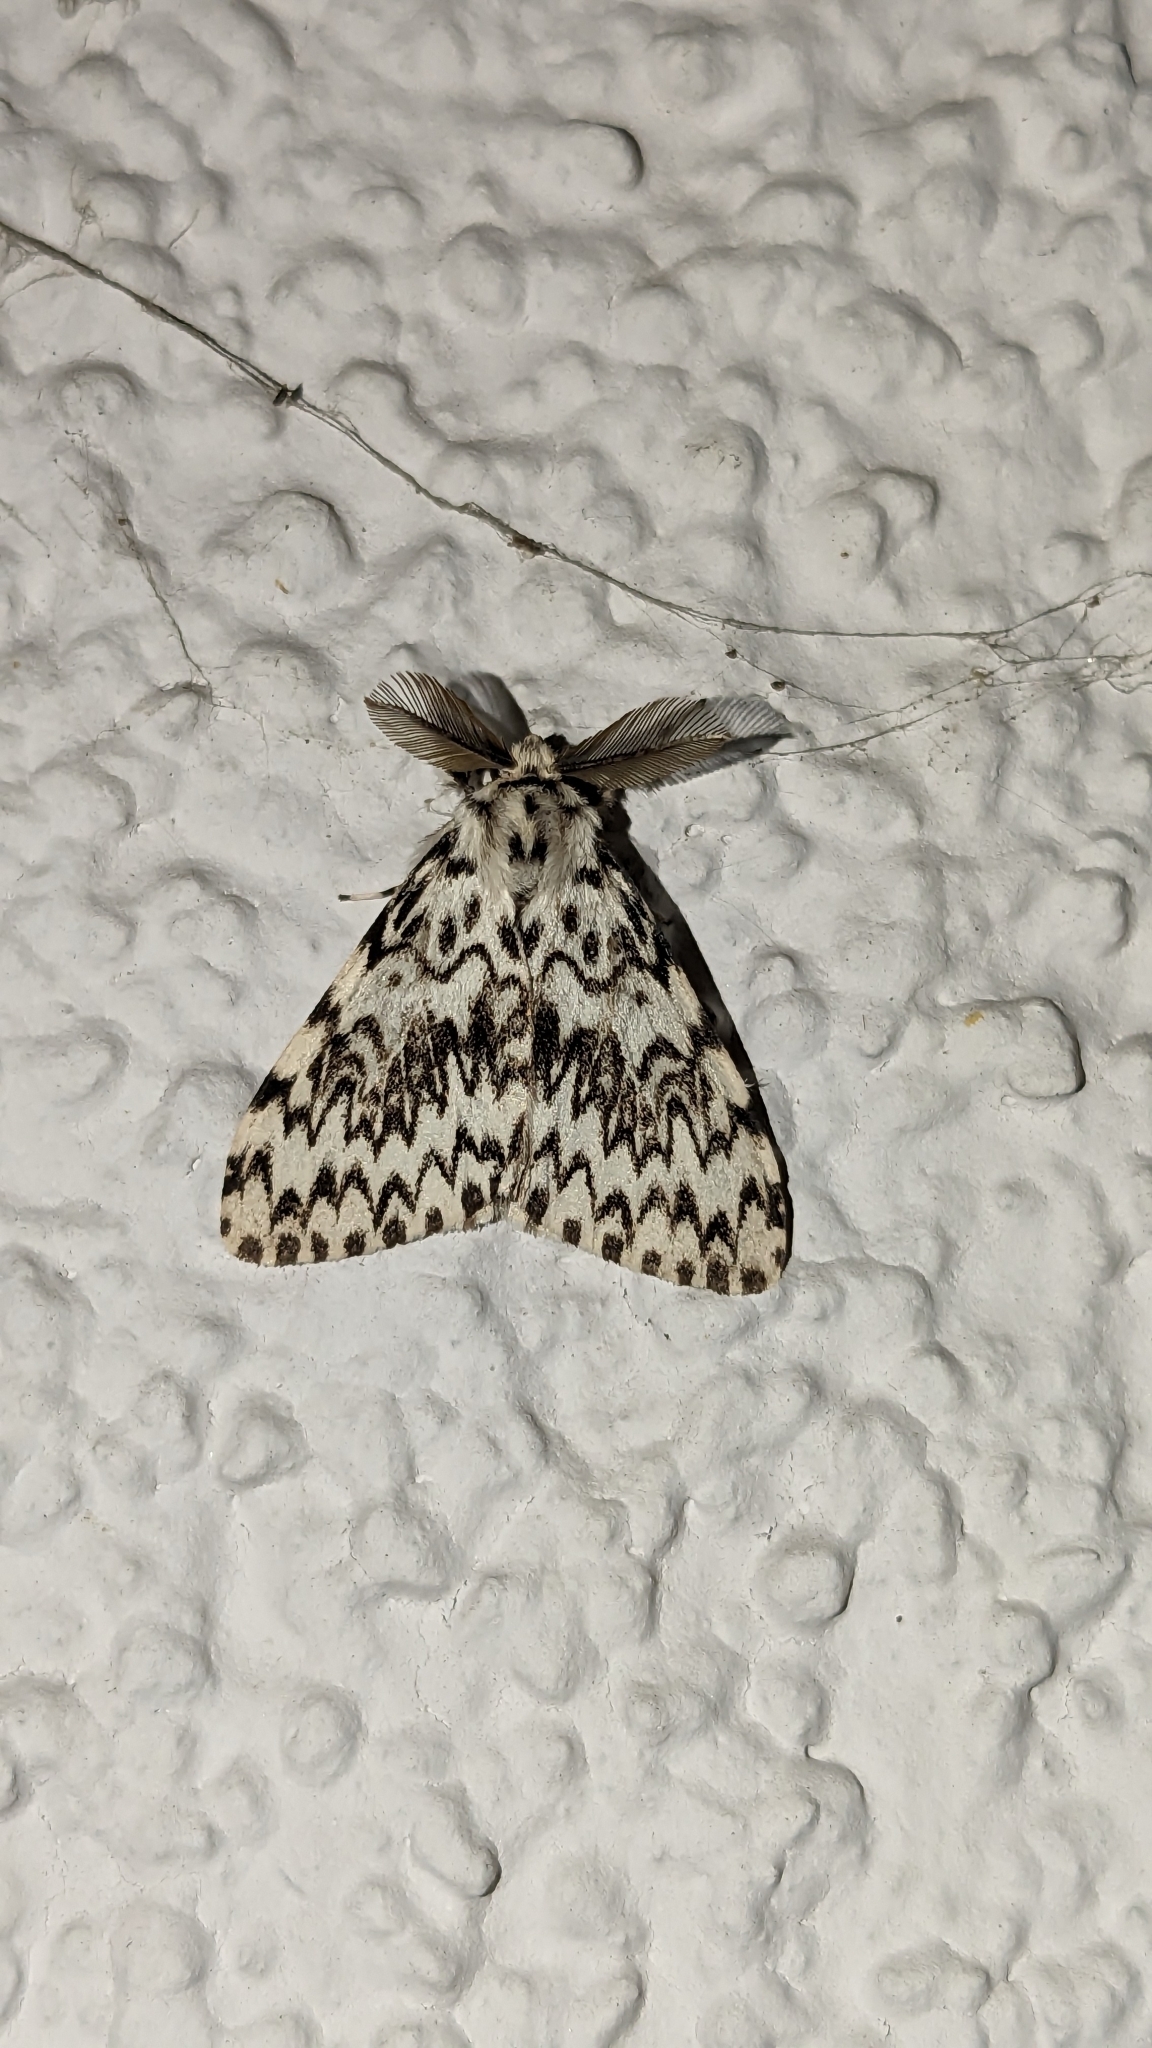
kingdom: Animalia
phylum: Arthropoda
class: Insecta
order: Lepidoptera
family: Erebidae
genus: Lymantria
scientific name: Lymantria monacha
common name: Black arches
